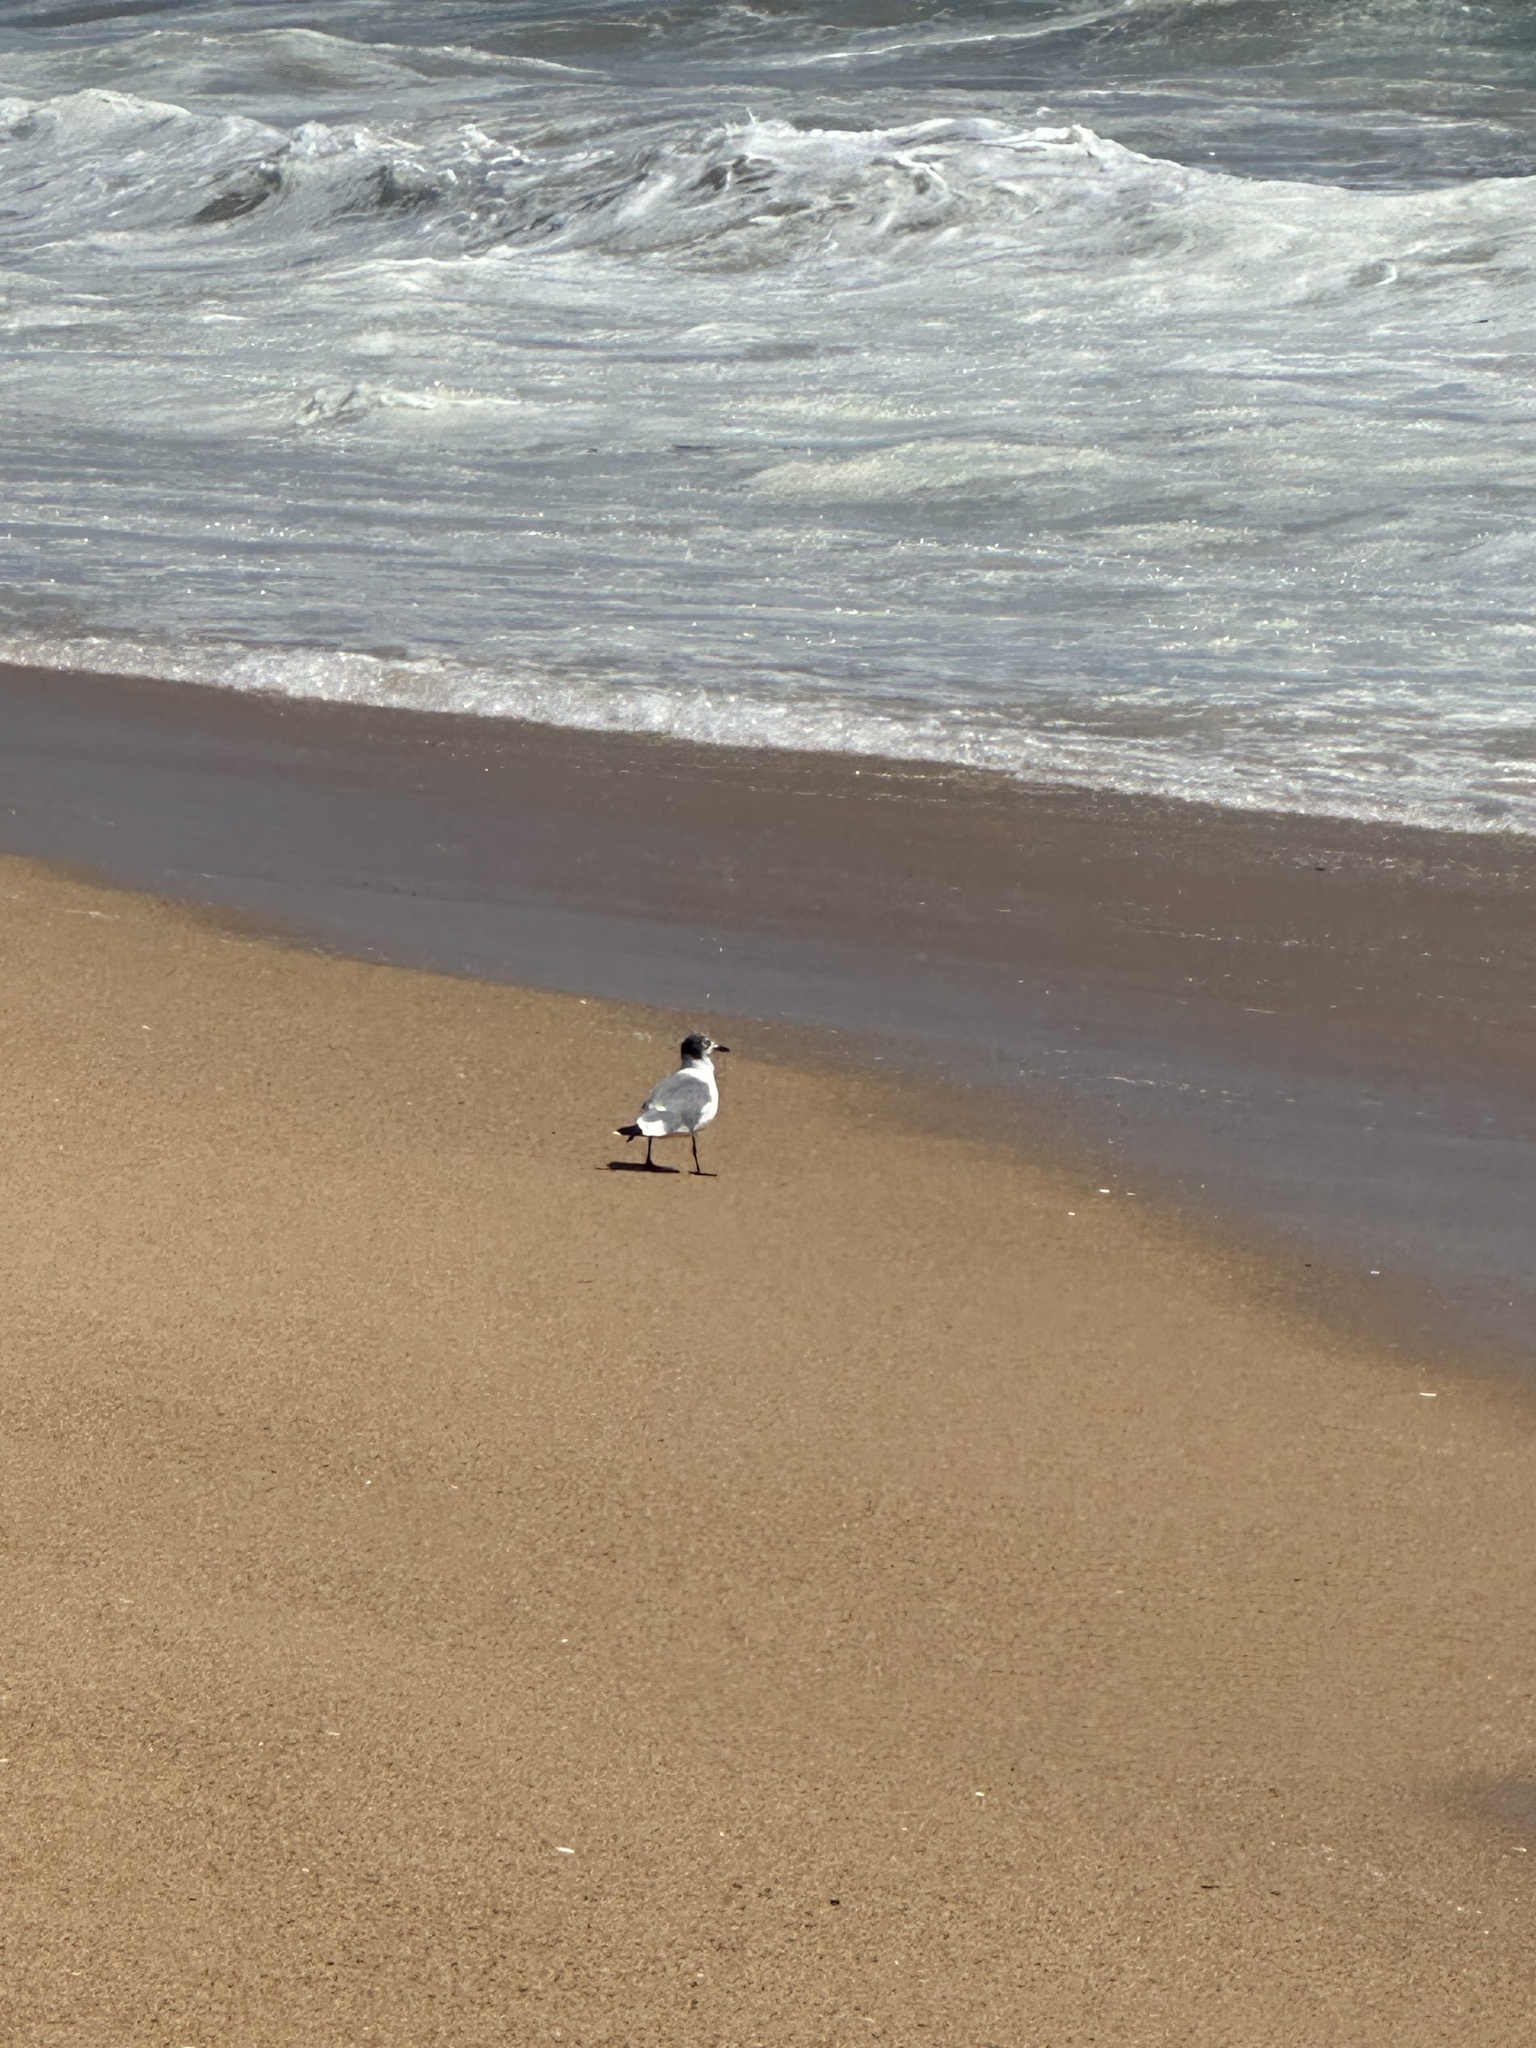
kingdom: Animalia
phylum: Chordata
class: Aves
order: Charadriiformes
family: Laridae
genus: Leucophaeus
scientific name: Leucophaeus pipixcan
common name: Franklin's gull
